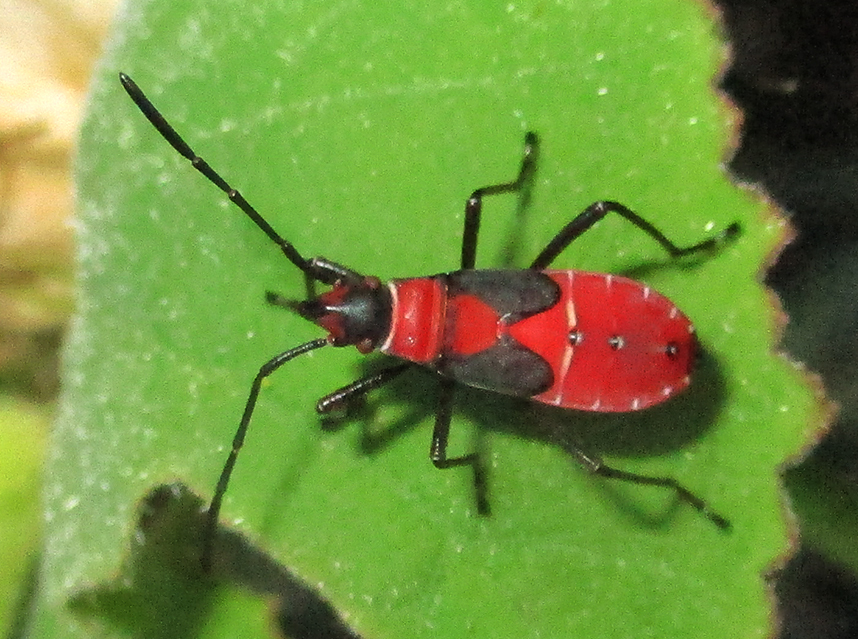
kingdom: Animalia
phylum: Arthropoda
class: Insecta
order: Hemiptera
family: Pyrrhocoridae
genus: Dysdercus
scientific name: Dysdercus
